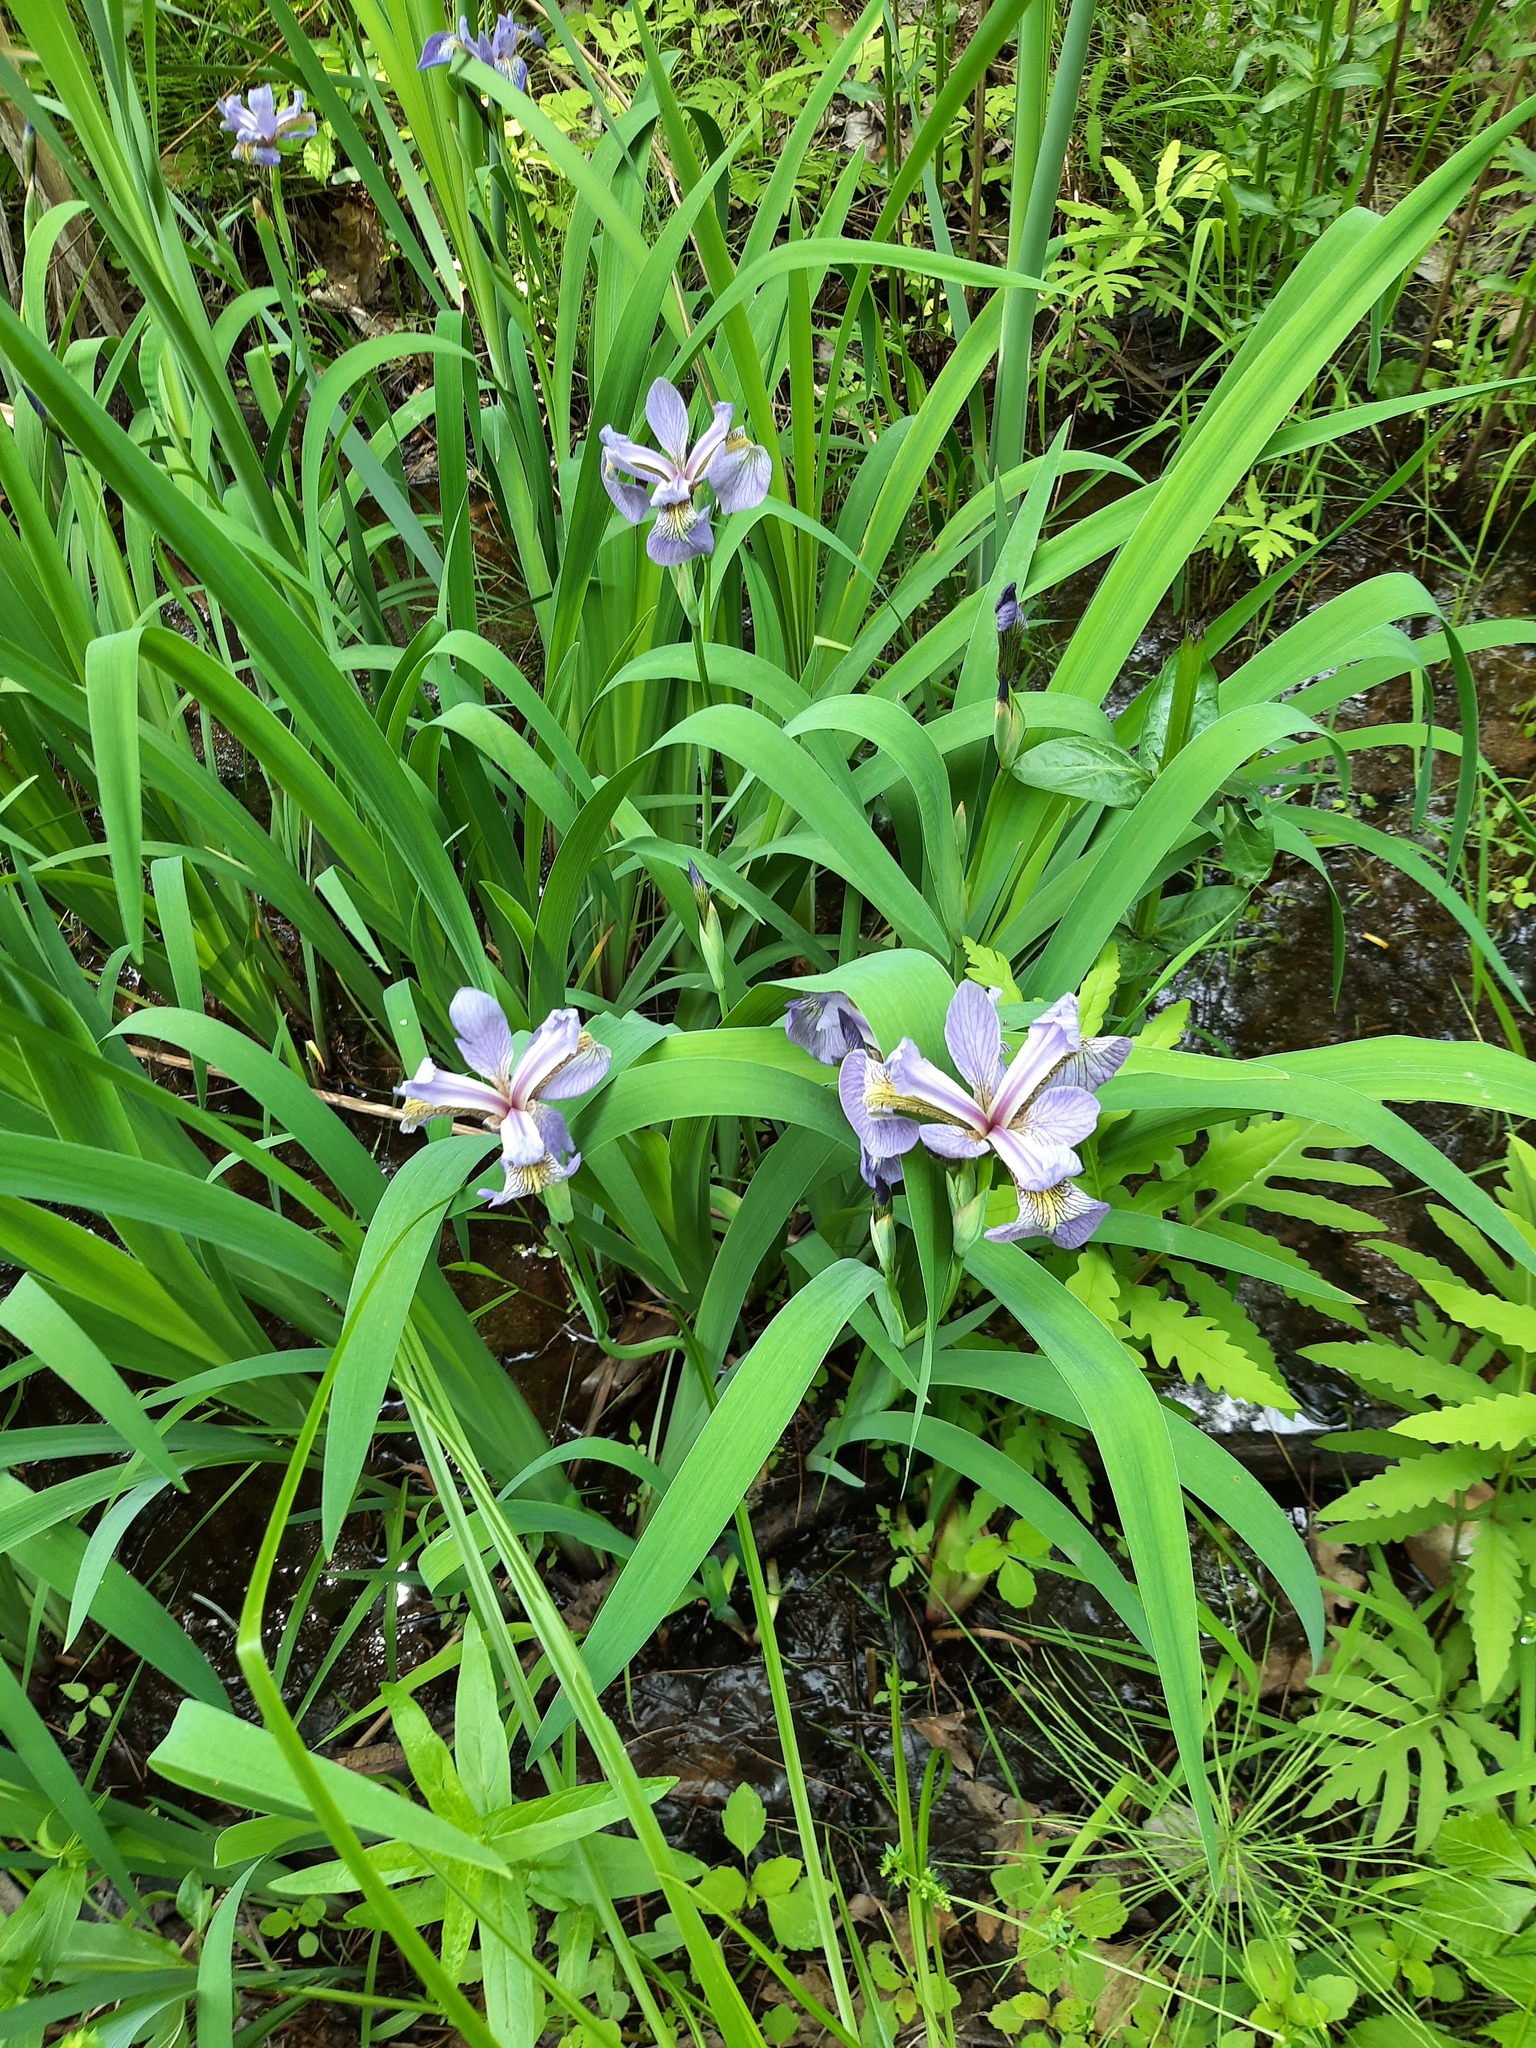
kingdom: Plantae
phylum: Tracheophyta
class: Liliopsida
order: Asparagales
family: Iridaceae
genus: Iris
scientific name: Iris versicolor
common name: Purple iris
